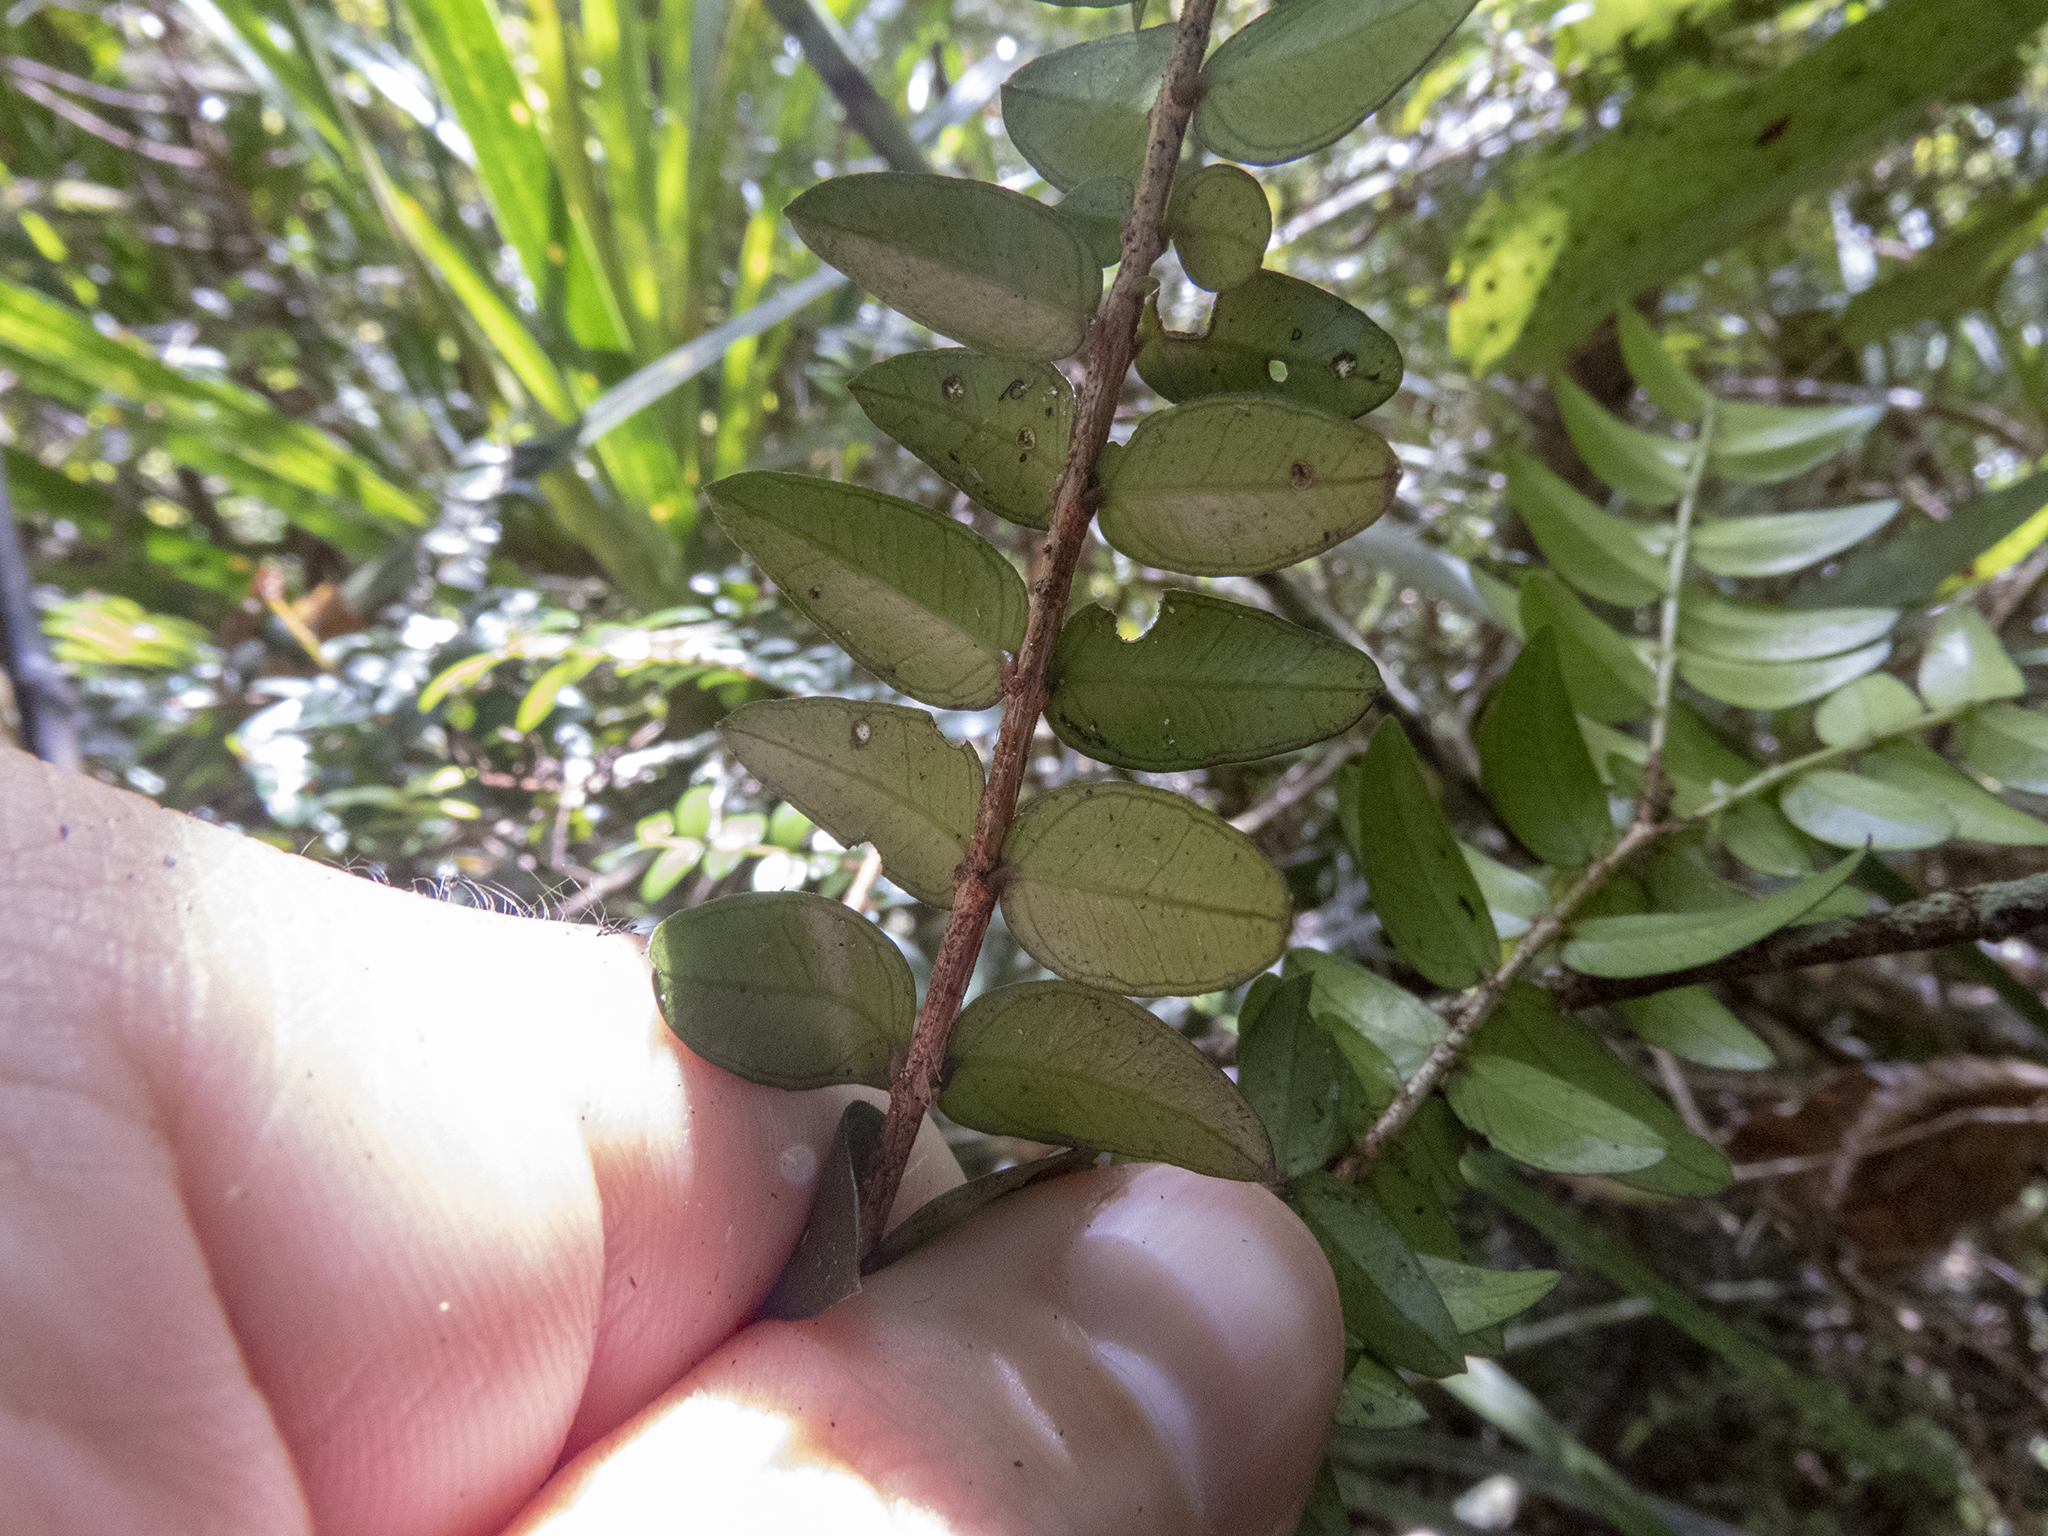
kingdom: Plantae
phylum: Tracheophyta
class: Magnoliopsida
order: Myrtales
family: Myrtaceae
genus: Metrosideros
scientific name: Metrosideros diffusa
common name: Small ratavine
